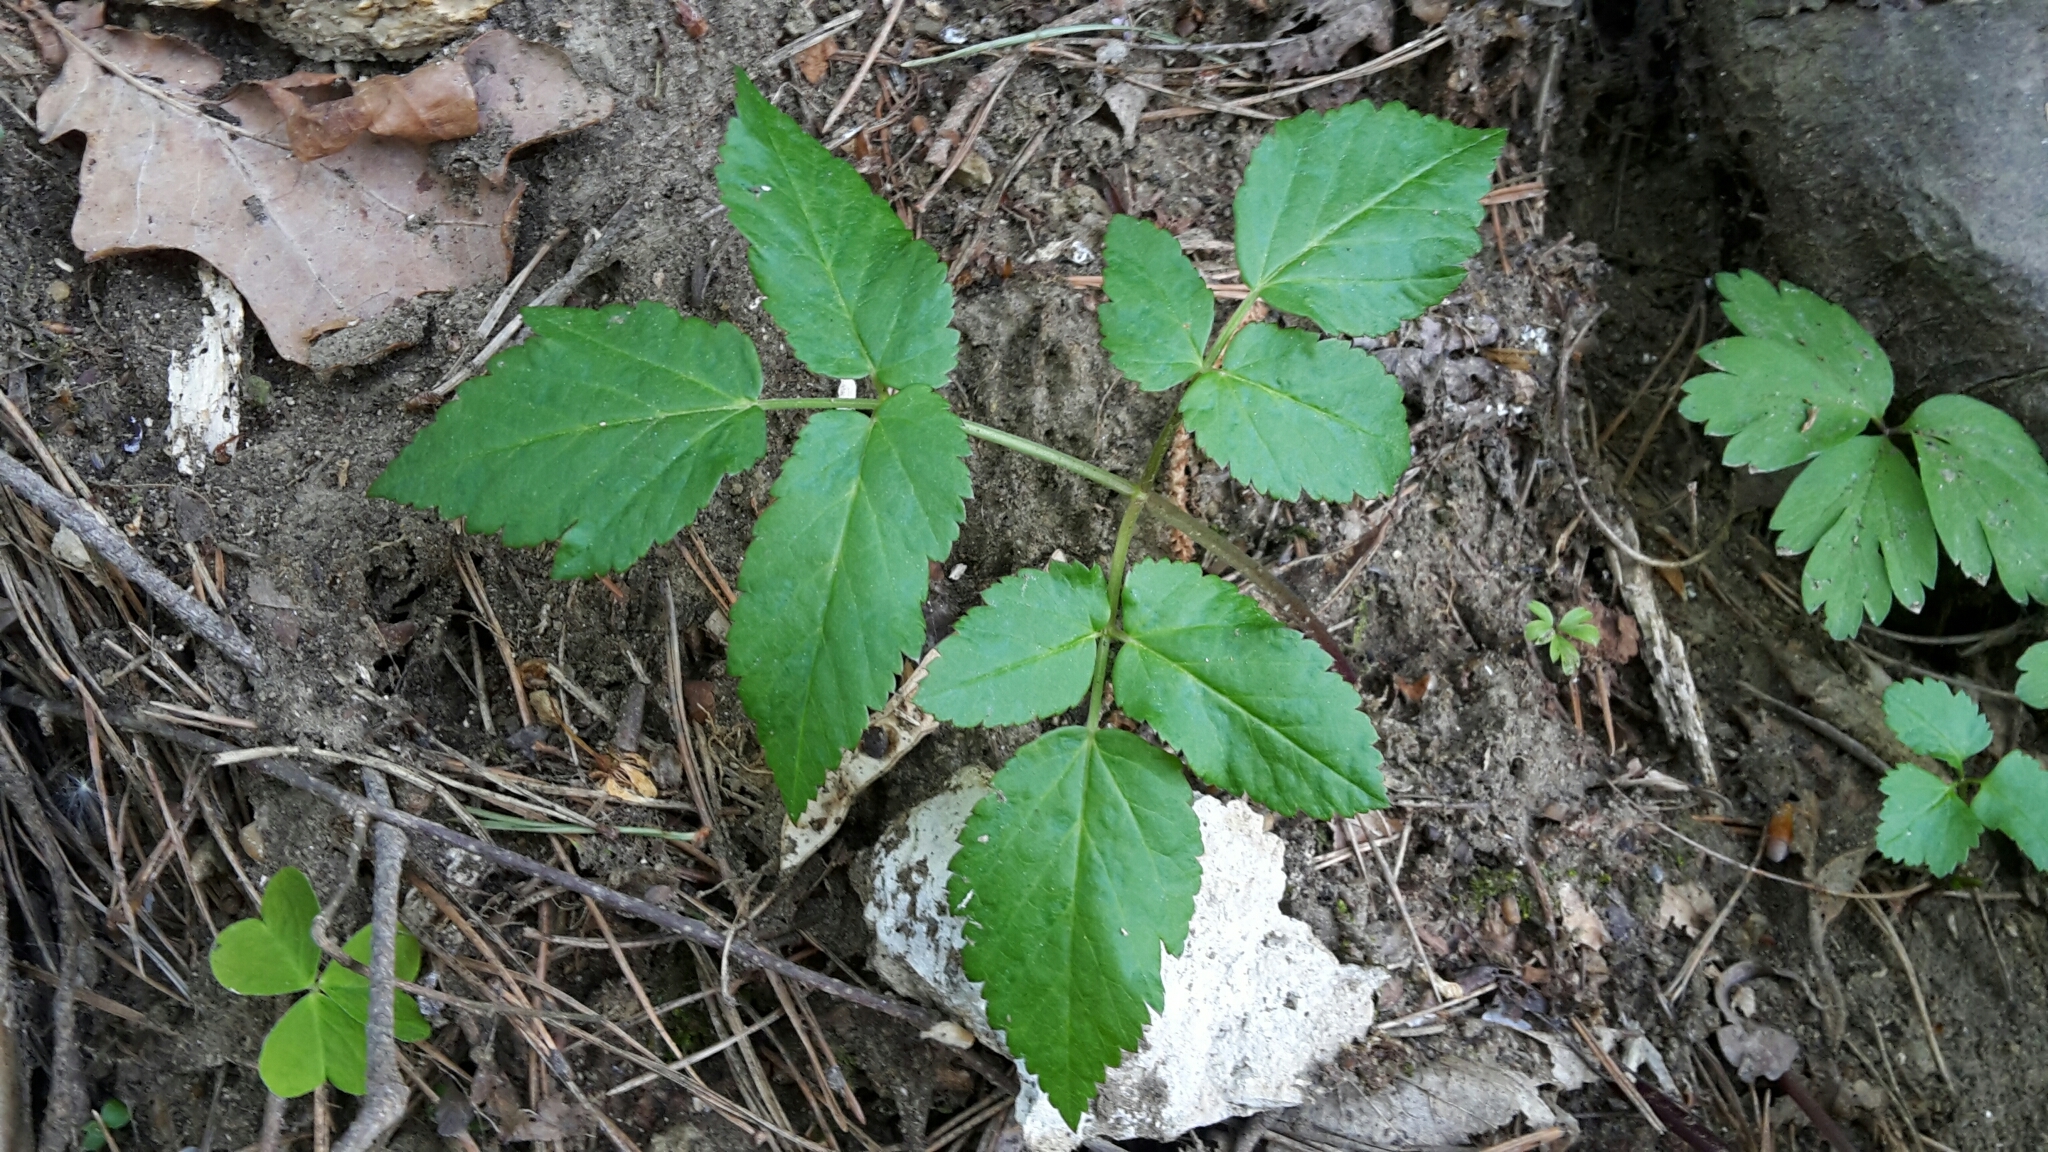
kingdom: Plantae
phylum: Tracheophyta
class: Magnoliopsida
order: Apiales
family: Apiaceae
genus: Aegopodium
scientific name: Aegopodium podagraria
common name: Ground-elder
